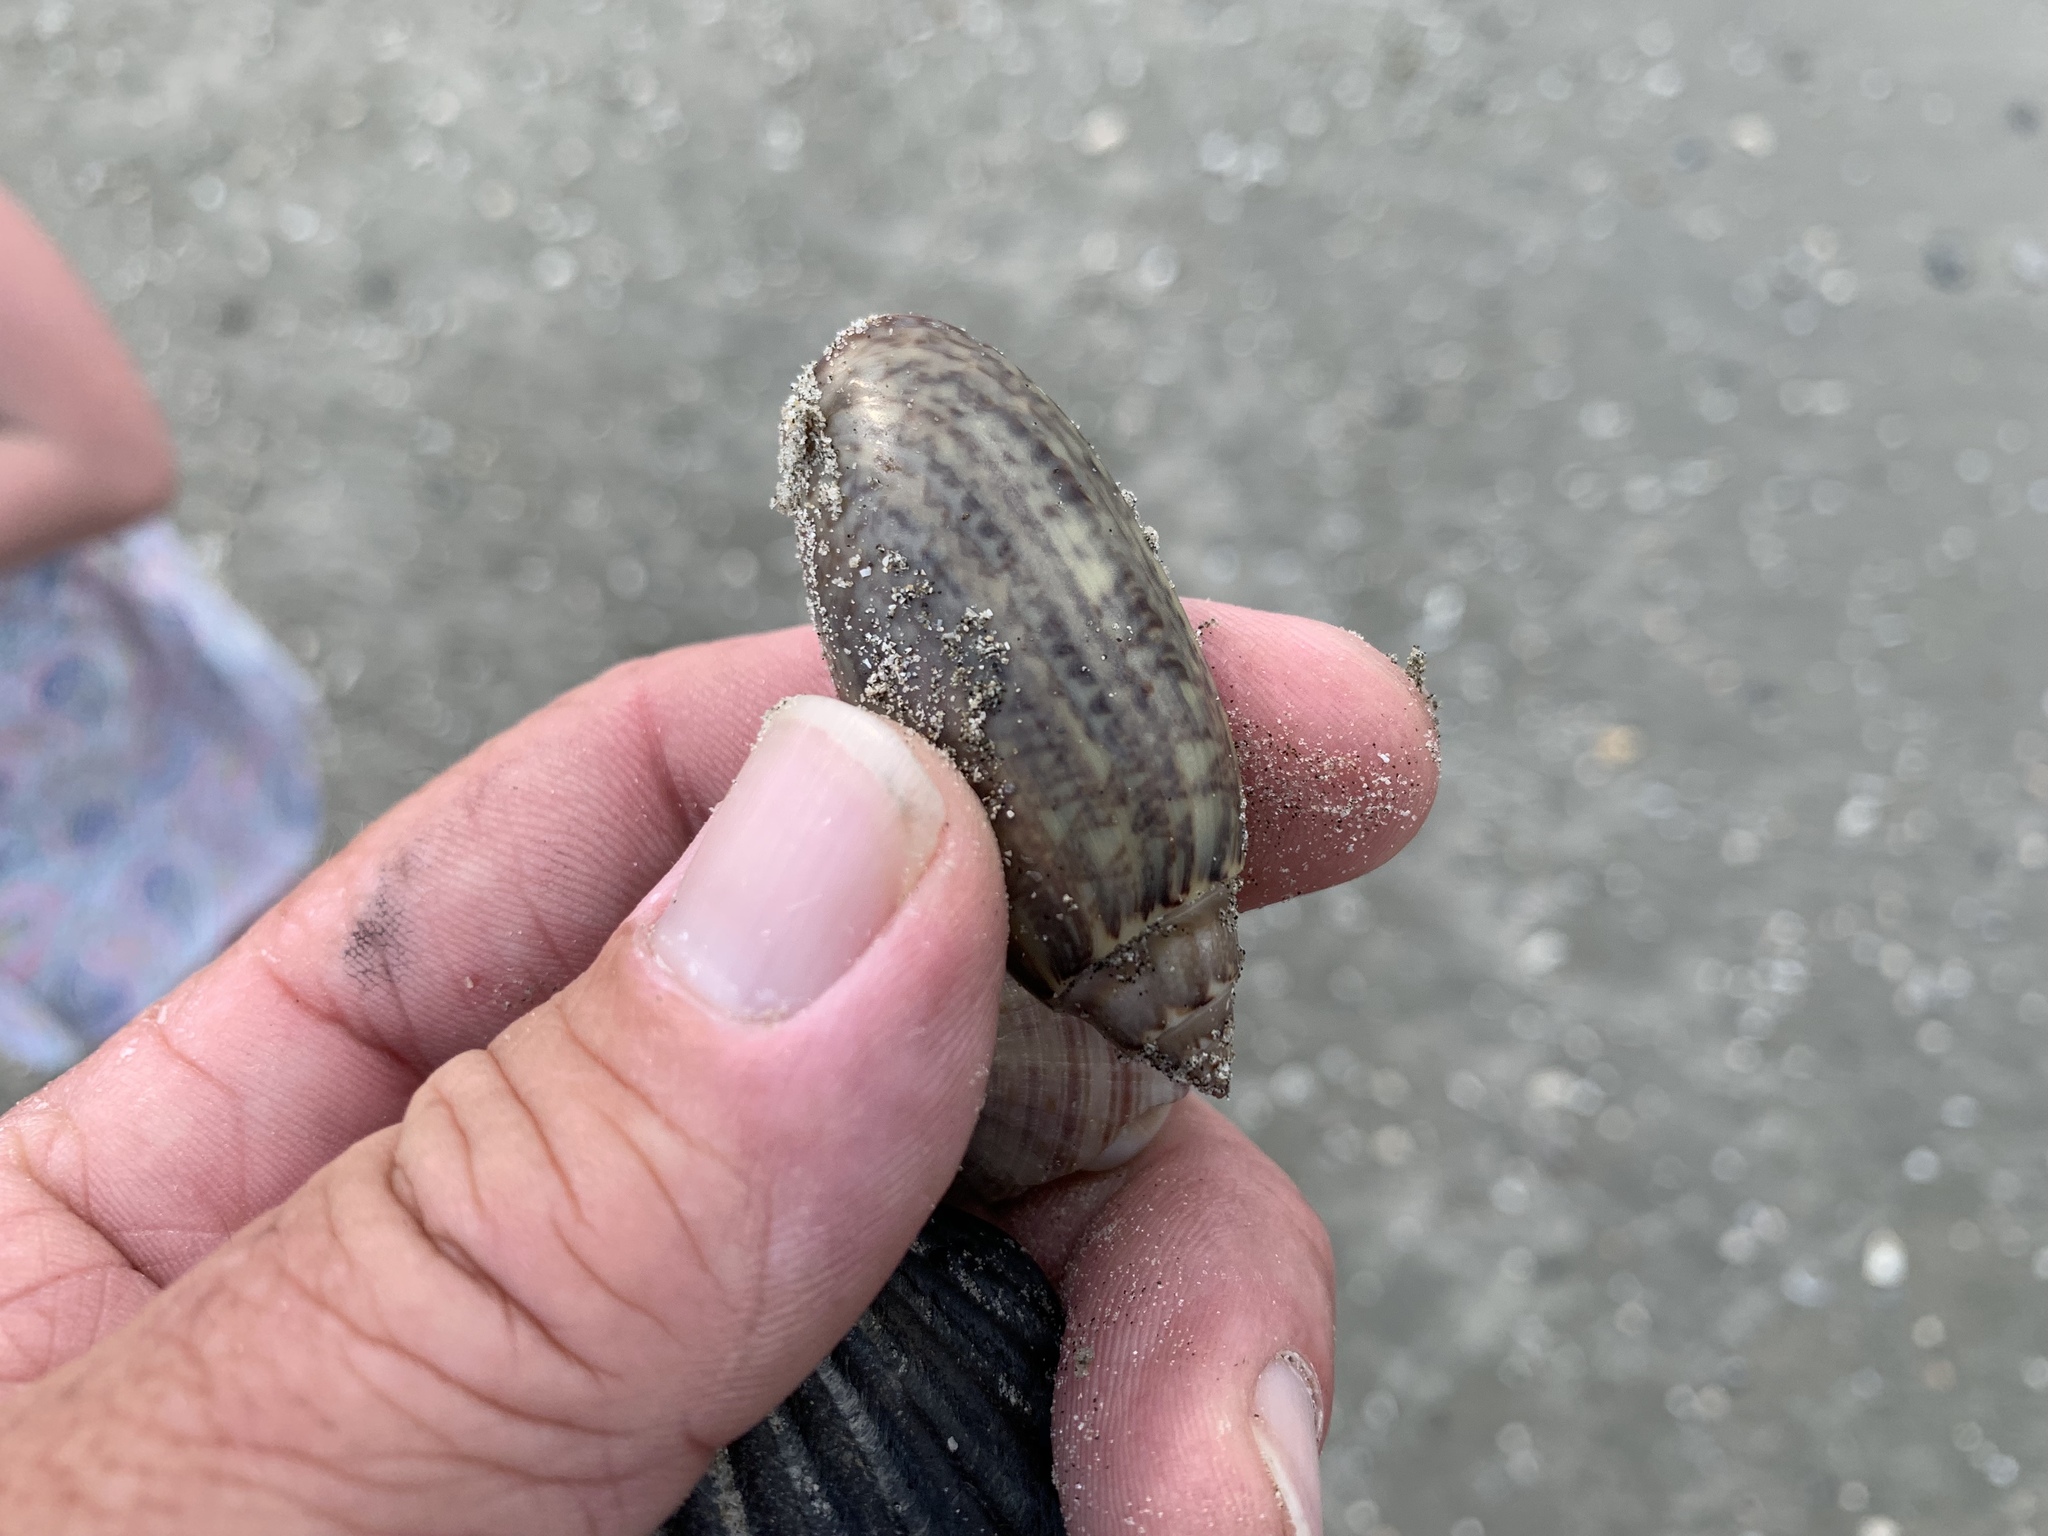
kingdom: Animalia
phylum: Mollusca
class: Gastropoda
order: Neogastropoda
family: Olividae
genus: Oliva
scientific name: Oliva sayana
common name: Lettered olive
